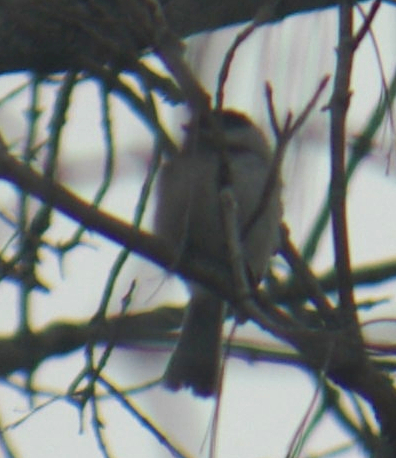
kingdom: Animalia
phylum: Chordata
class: Aves
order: Passeriformes
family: Paridae
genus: Poecile
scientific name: Poecile atricapillus
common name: Black-capped chickadee
